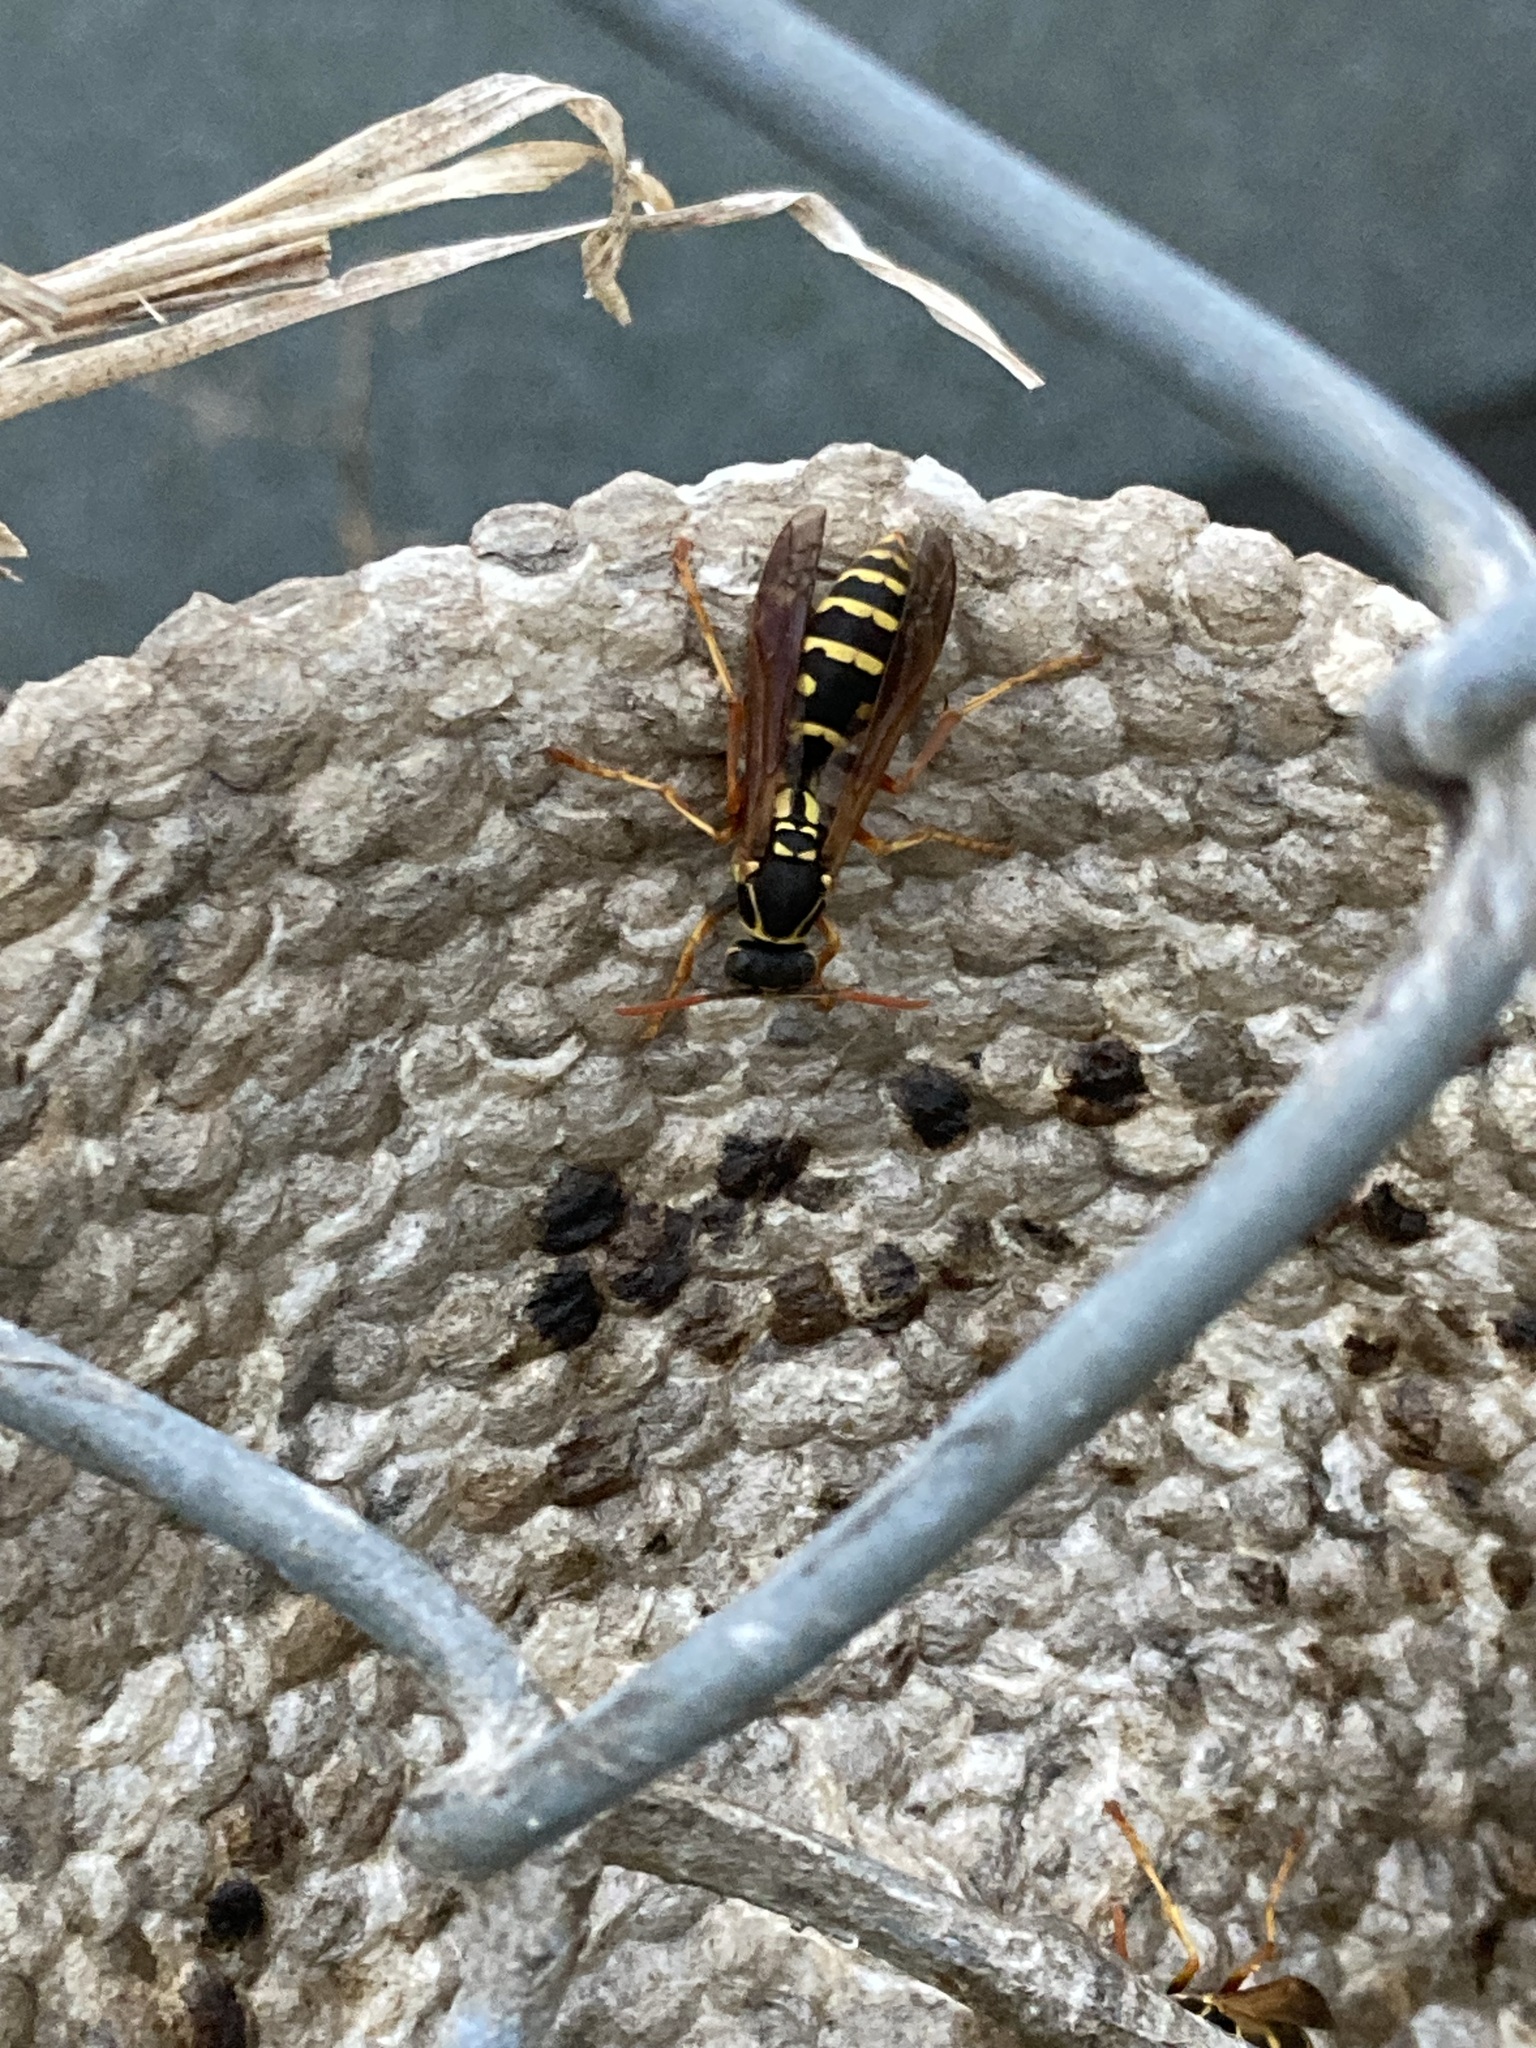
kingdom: Animalia
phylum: Arthropoda
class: Insecta
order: Hymenoptera
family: Eumenidae
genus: Polistes
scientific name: Polistes chinensis
